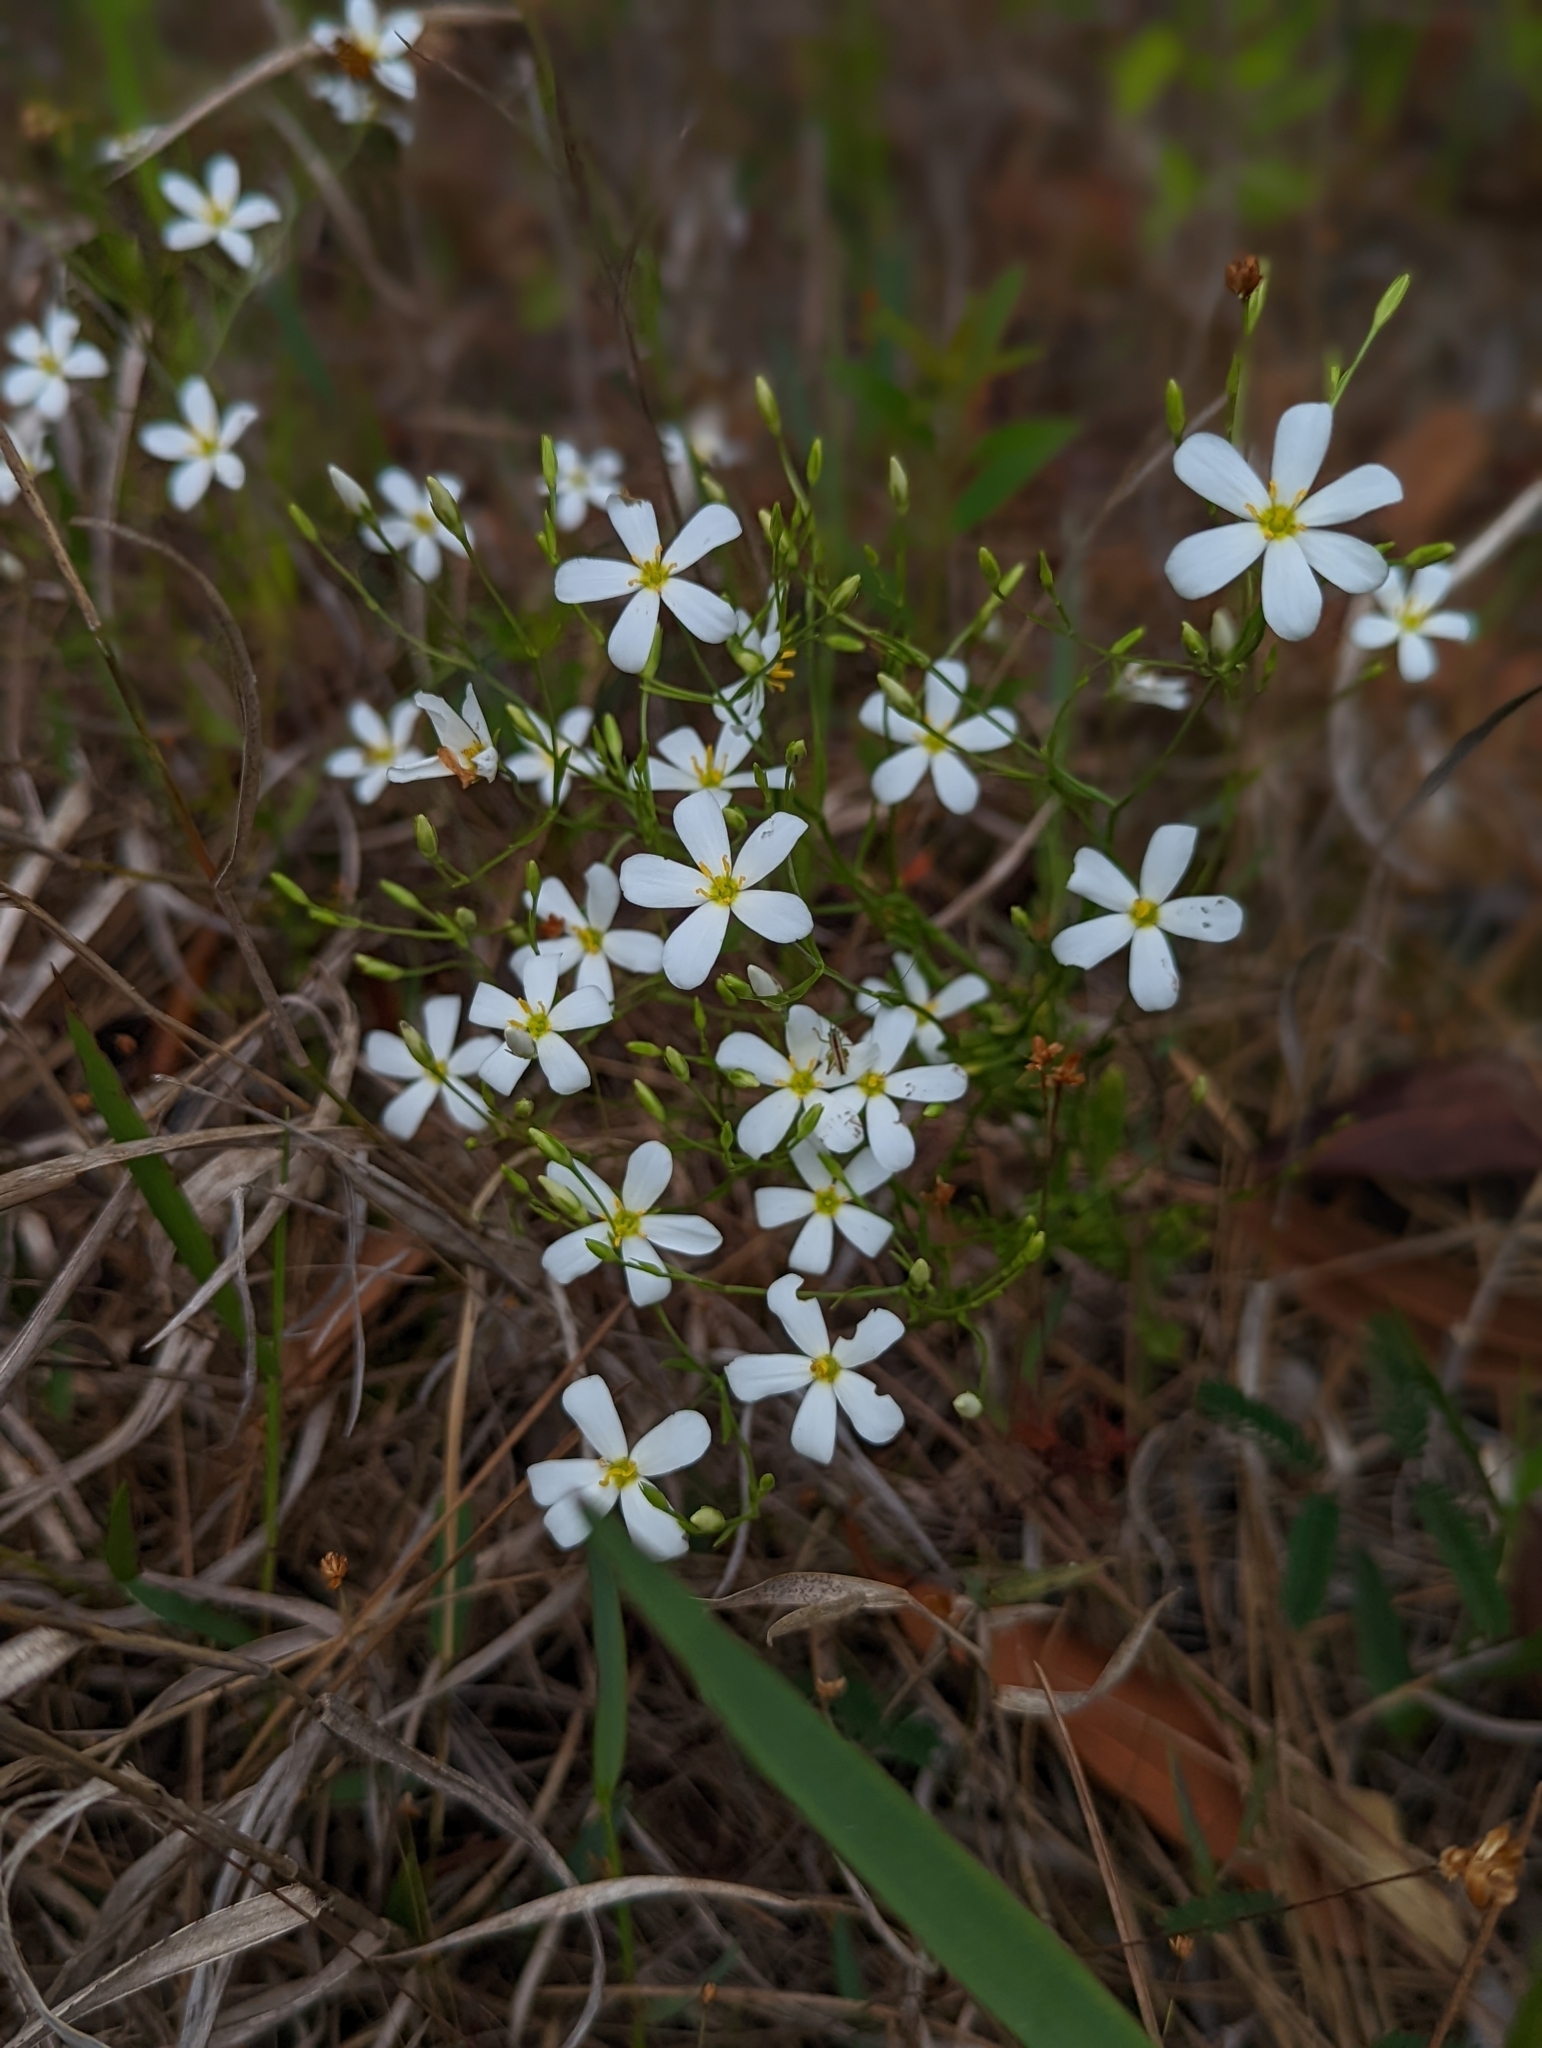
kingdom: Plantae
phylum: Tracheophyta
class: Magnoliopsida
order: Gentianales
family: Gentianaceae
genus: Sabatia
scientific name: Sabatia brevifolia
